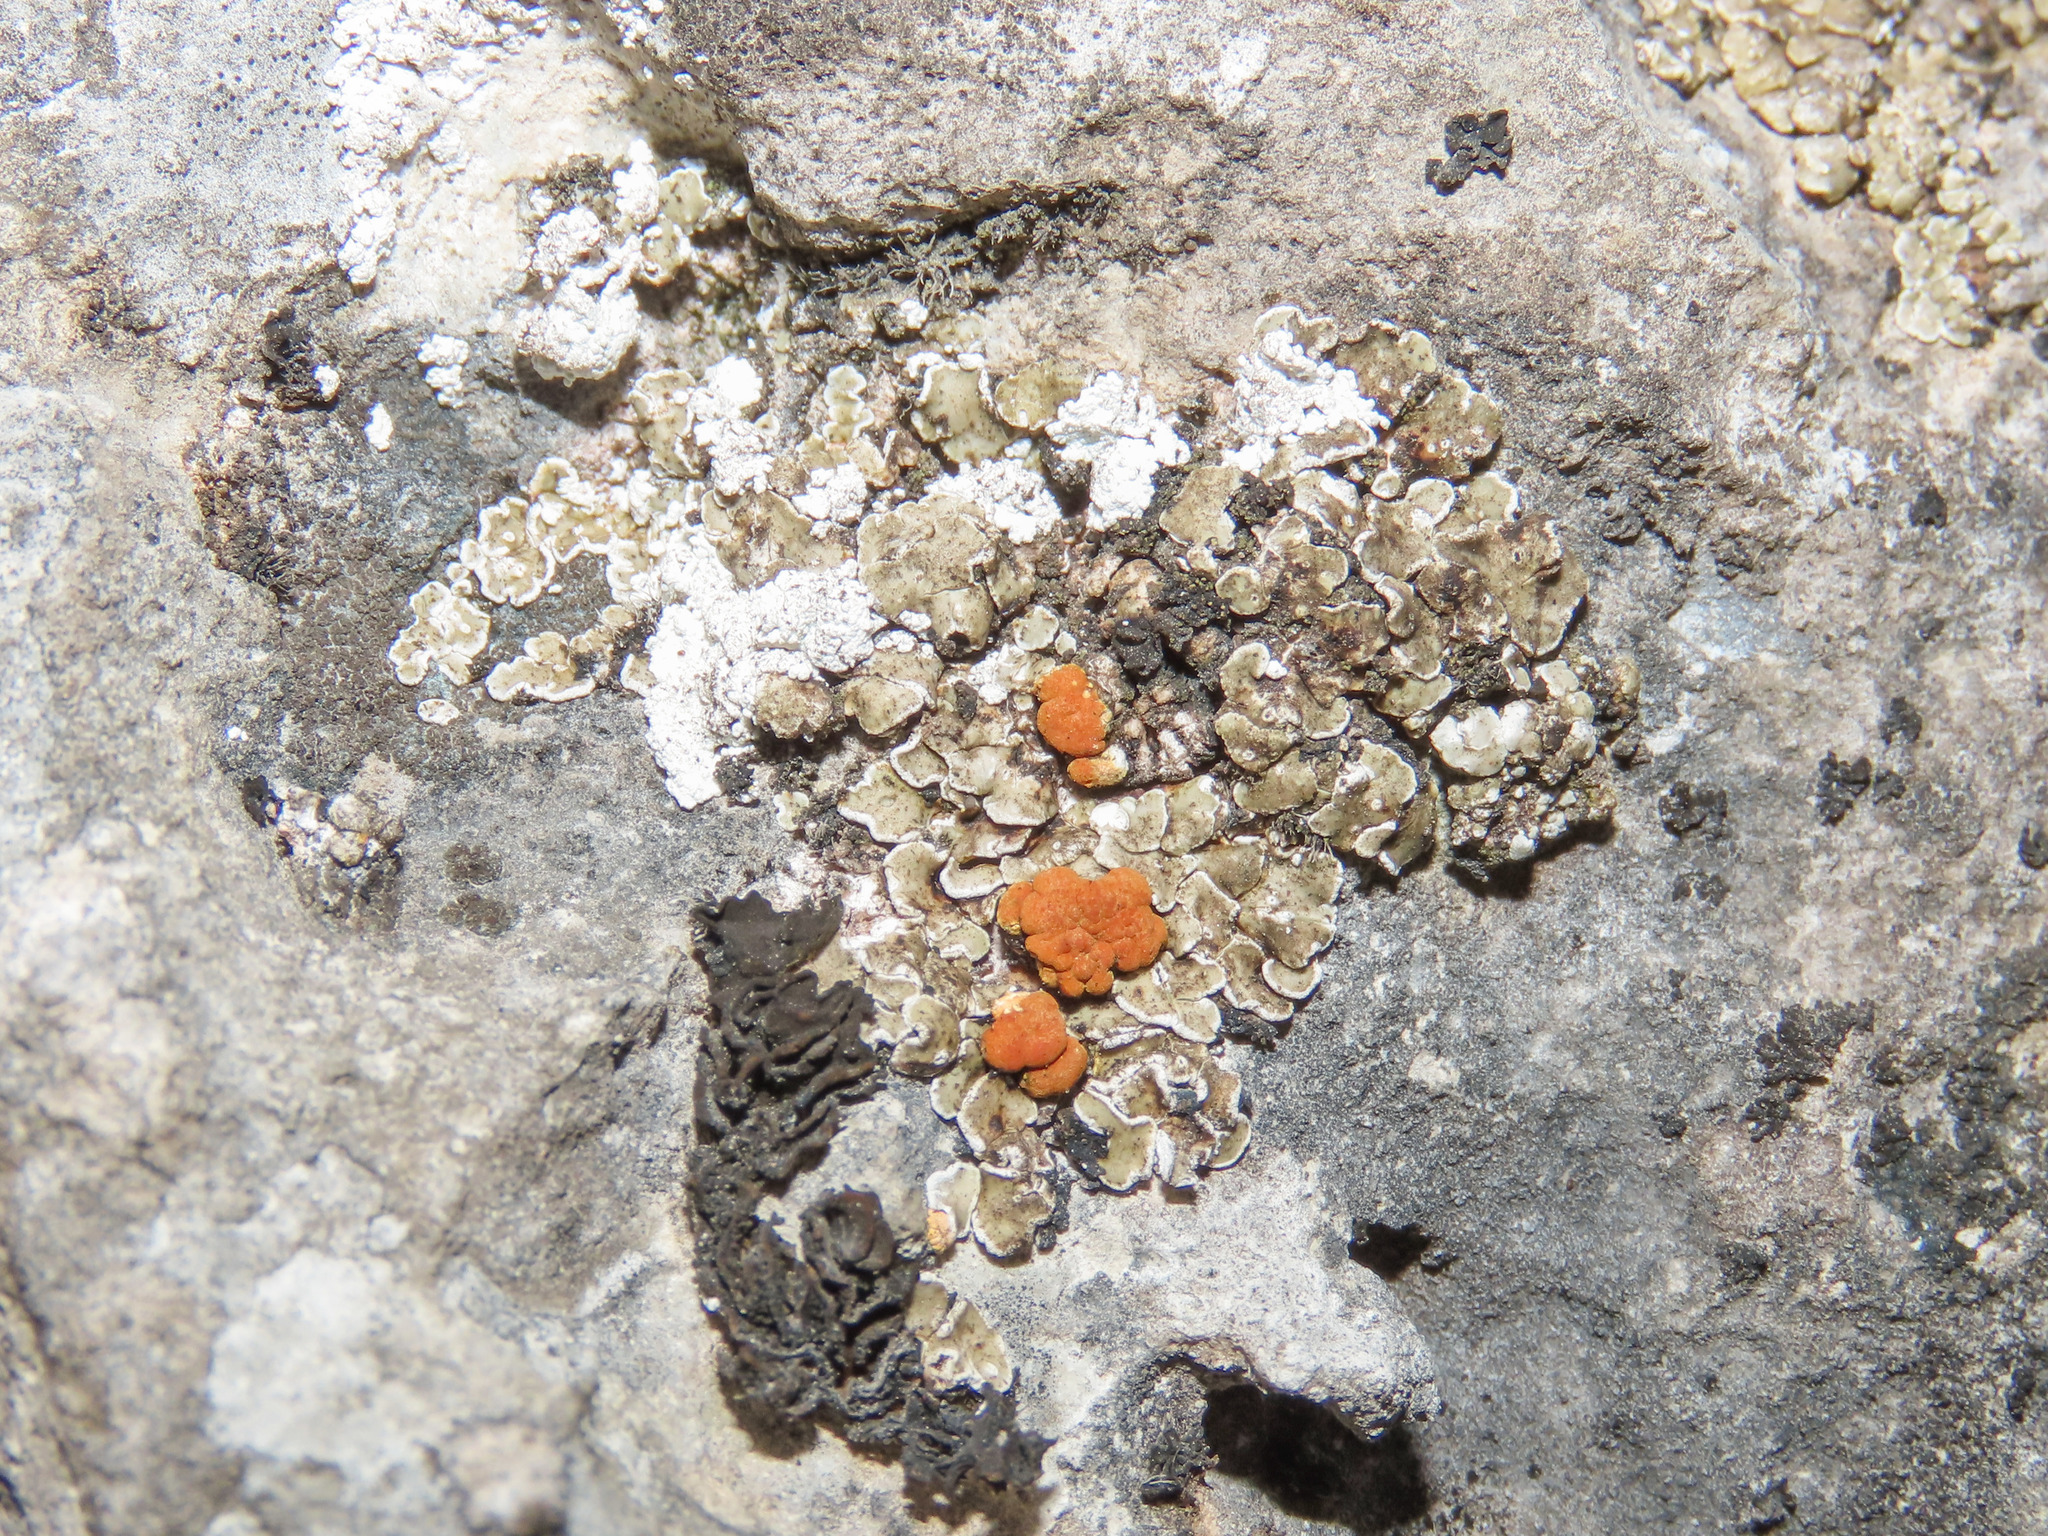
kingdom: Fungi
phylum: Ascomycota
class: Lecanoromycetes
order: Lecanorales
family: Psoraceae
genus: Psora
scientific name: Psora testacea
